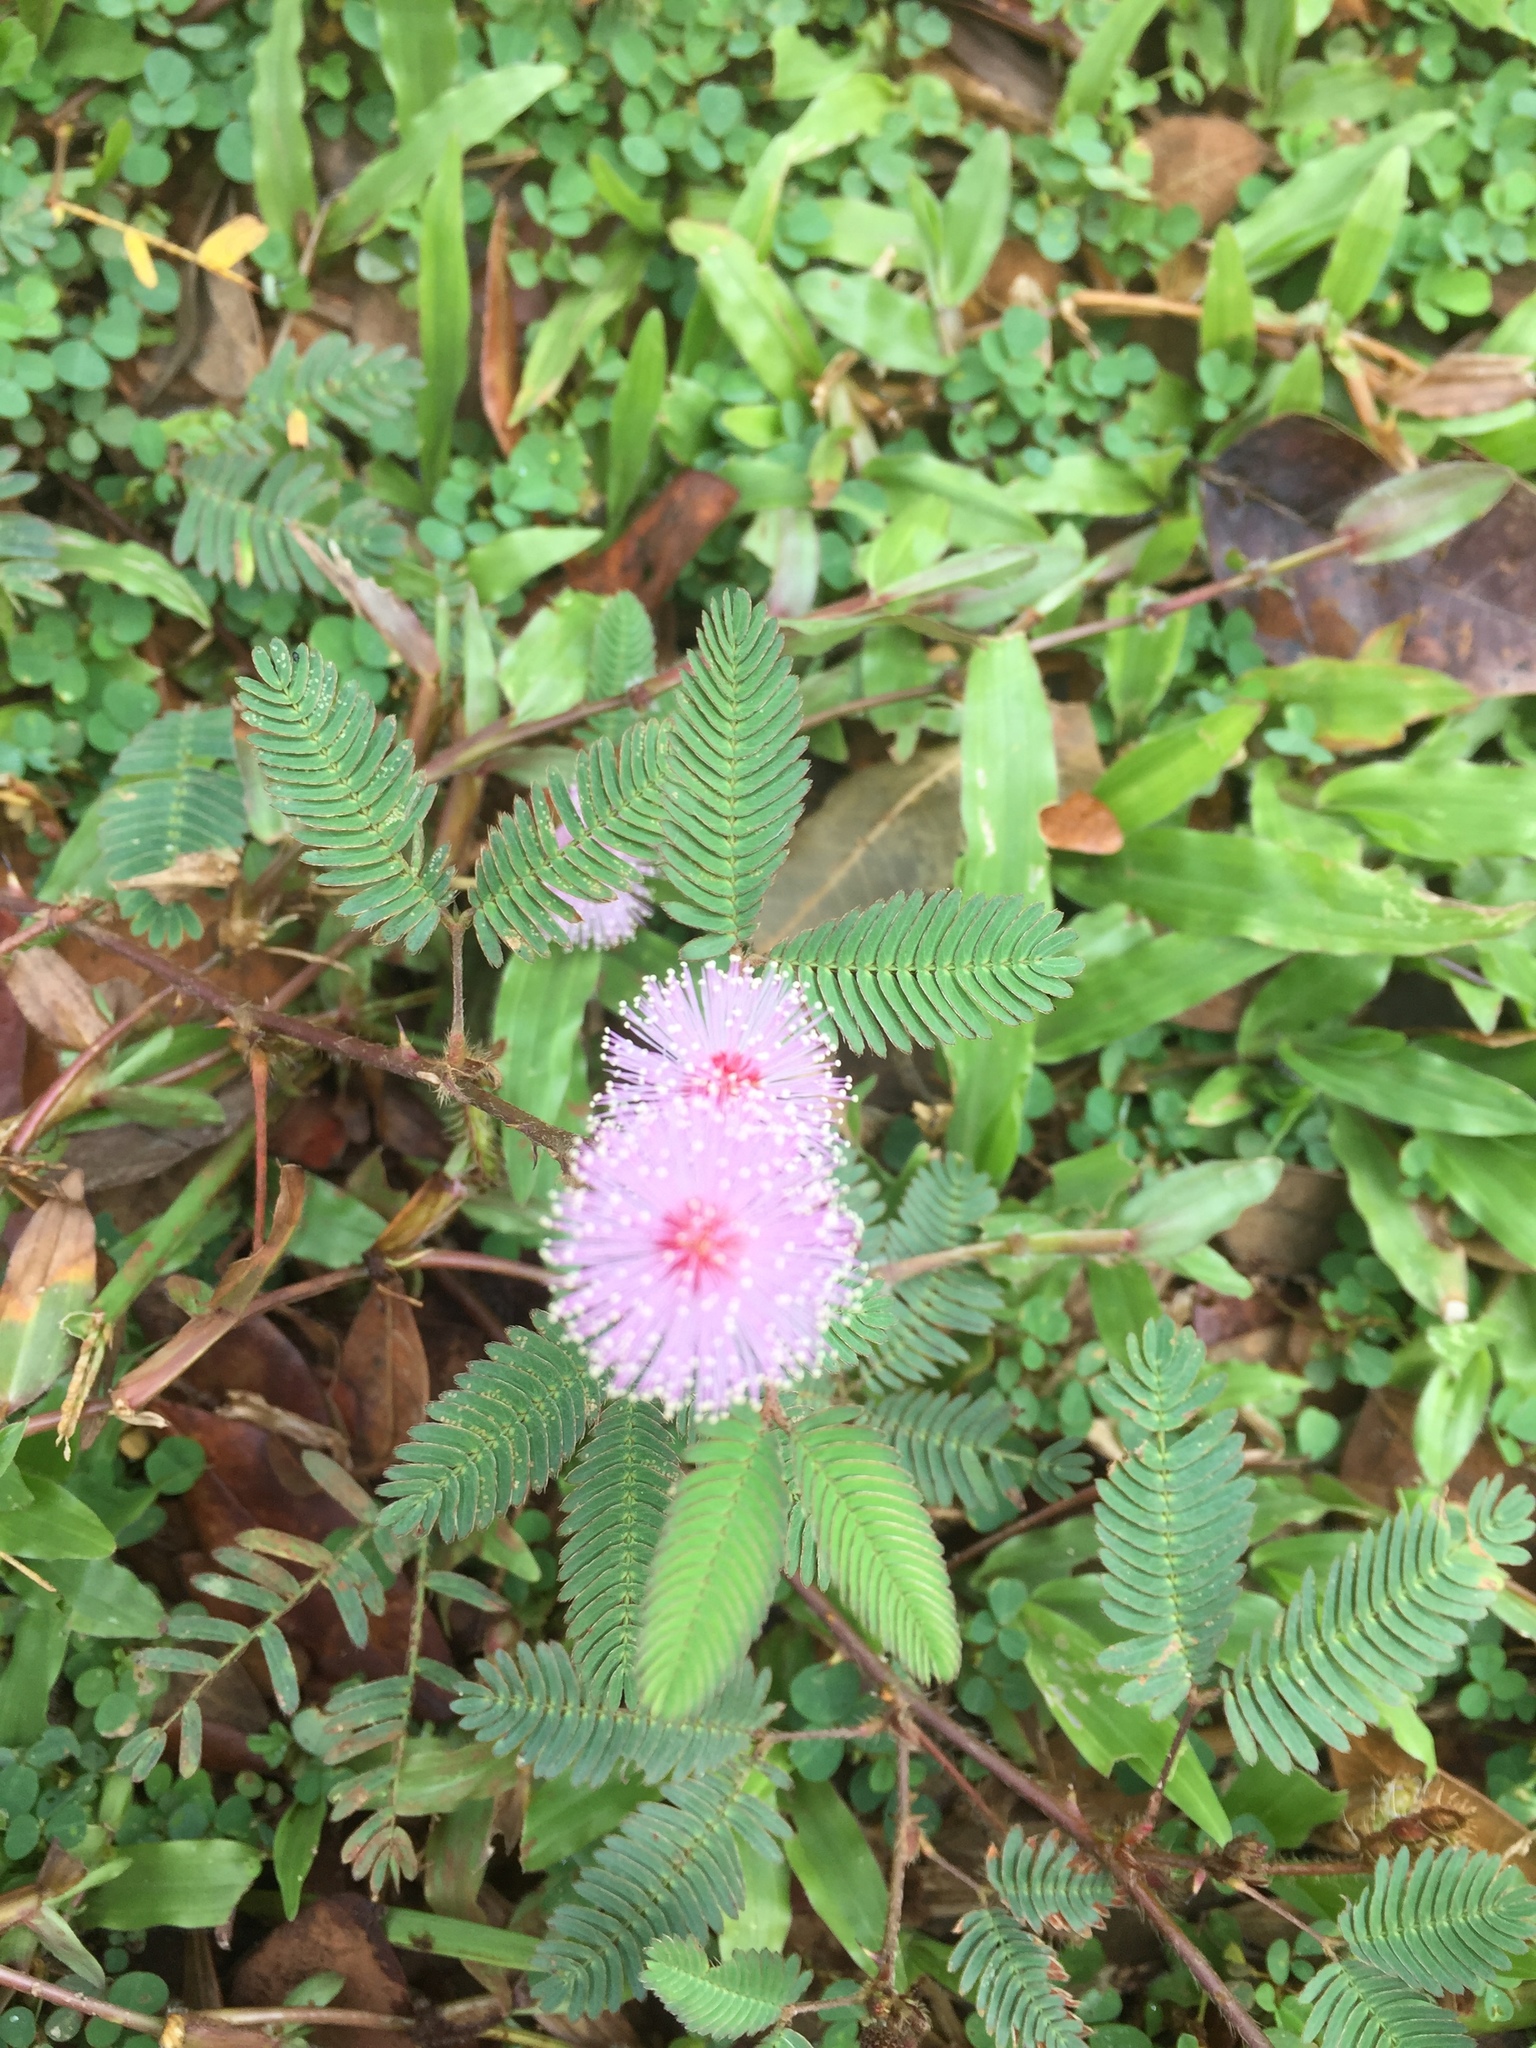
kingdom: Plantae
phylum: Tracheophyta
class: Magnoliopsida
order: Fabales
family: Fabaceae
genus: Mimosa
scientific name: Mimosa pudica
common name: Sensitive plant
